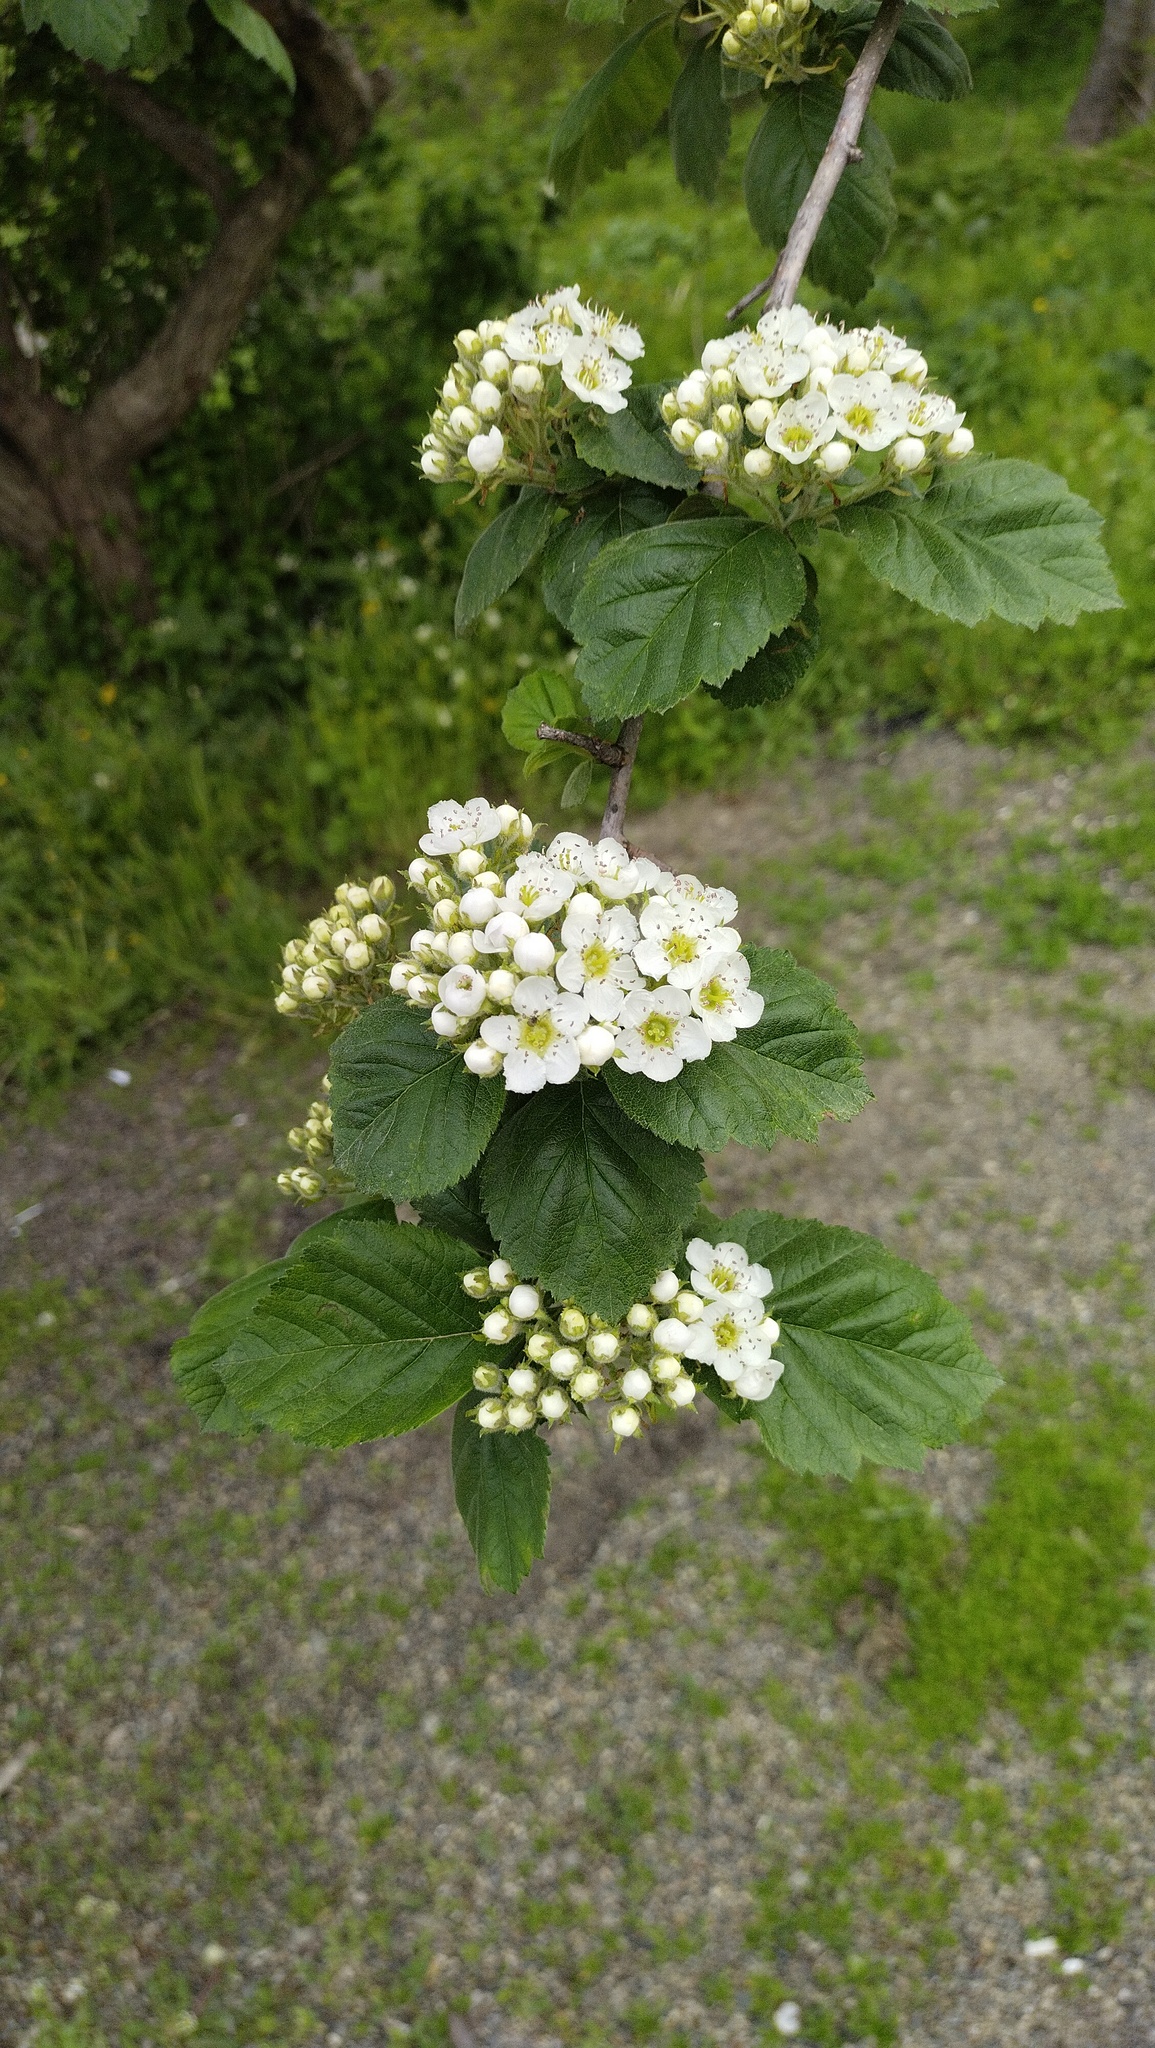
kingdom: Plantae
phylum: Tracheophyta
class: Magnoliopsida
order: Rosales
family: Rosaceae
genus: Crataegus
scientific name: Crataegus maximowiczii
